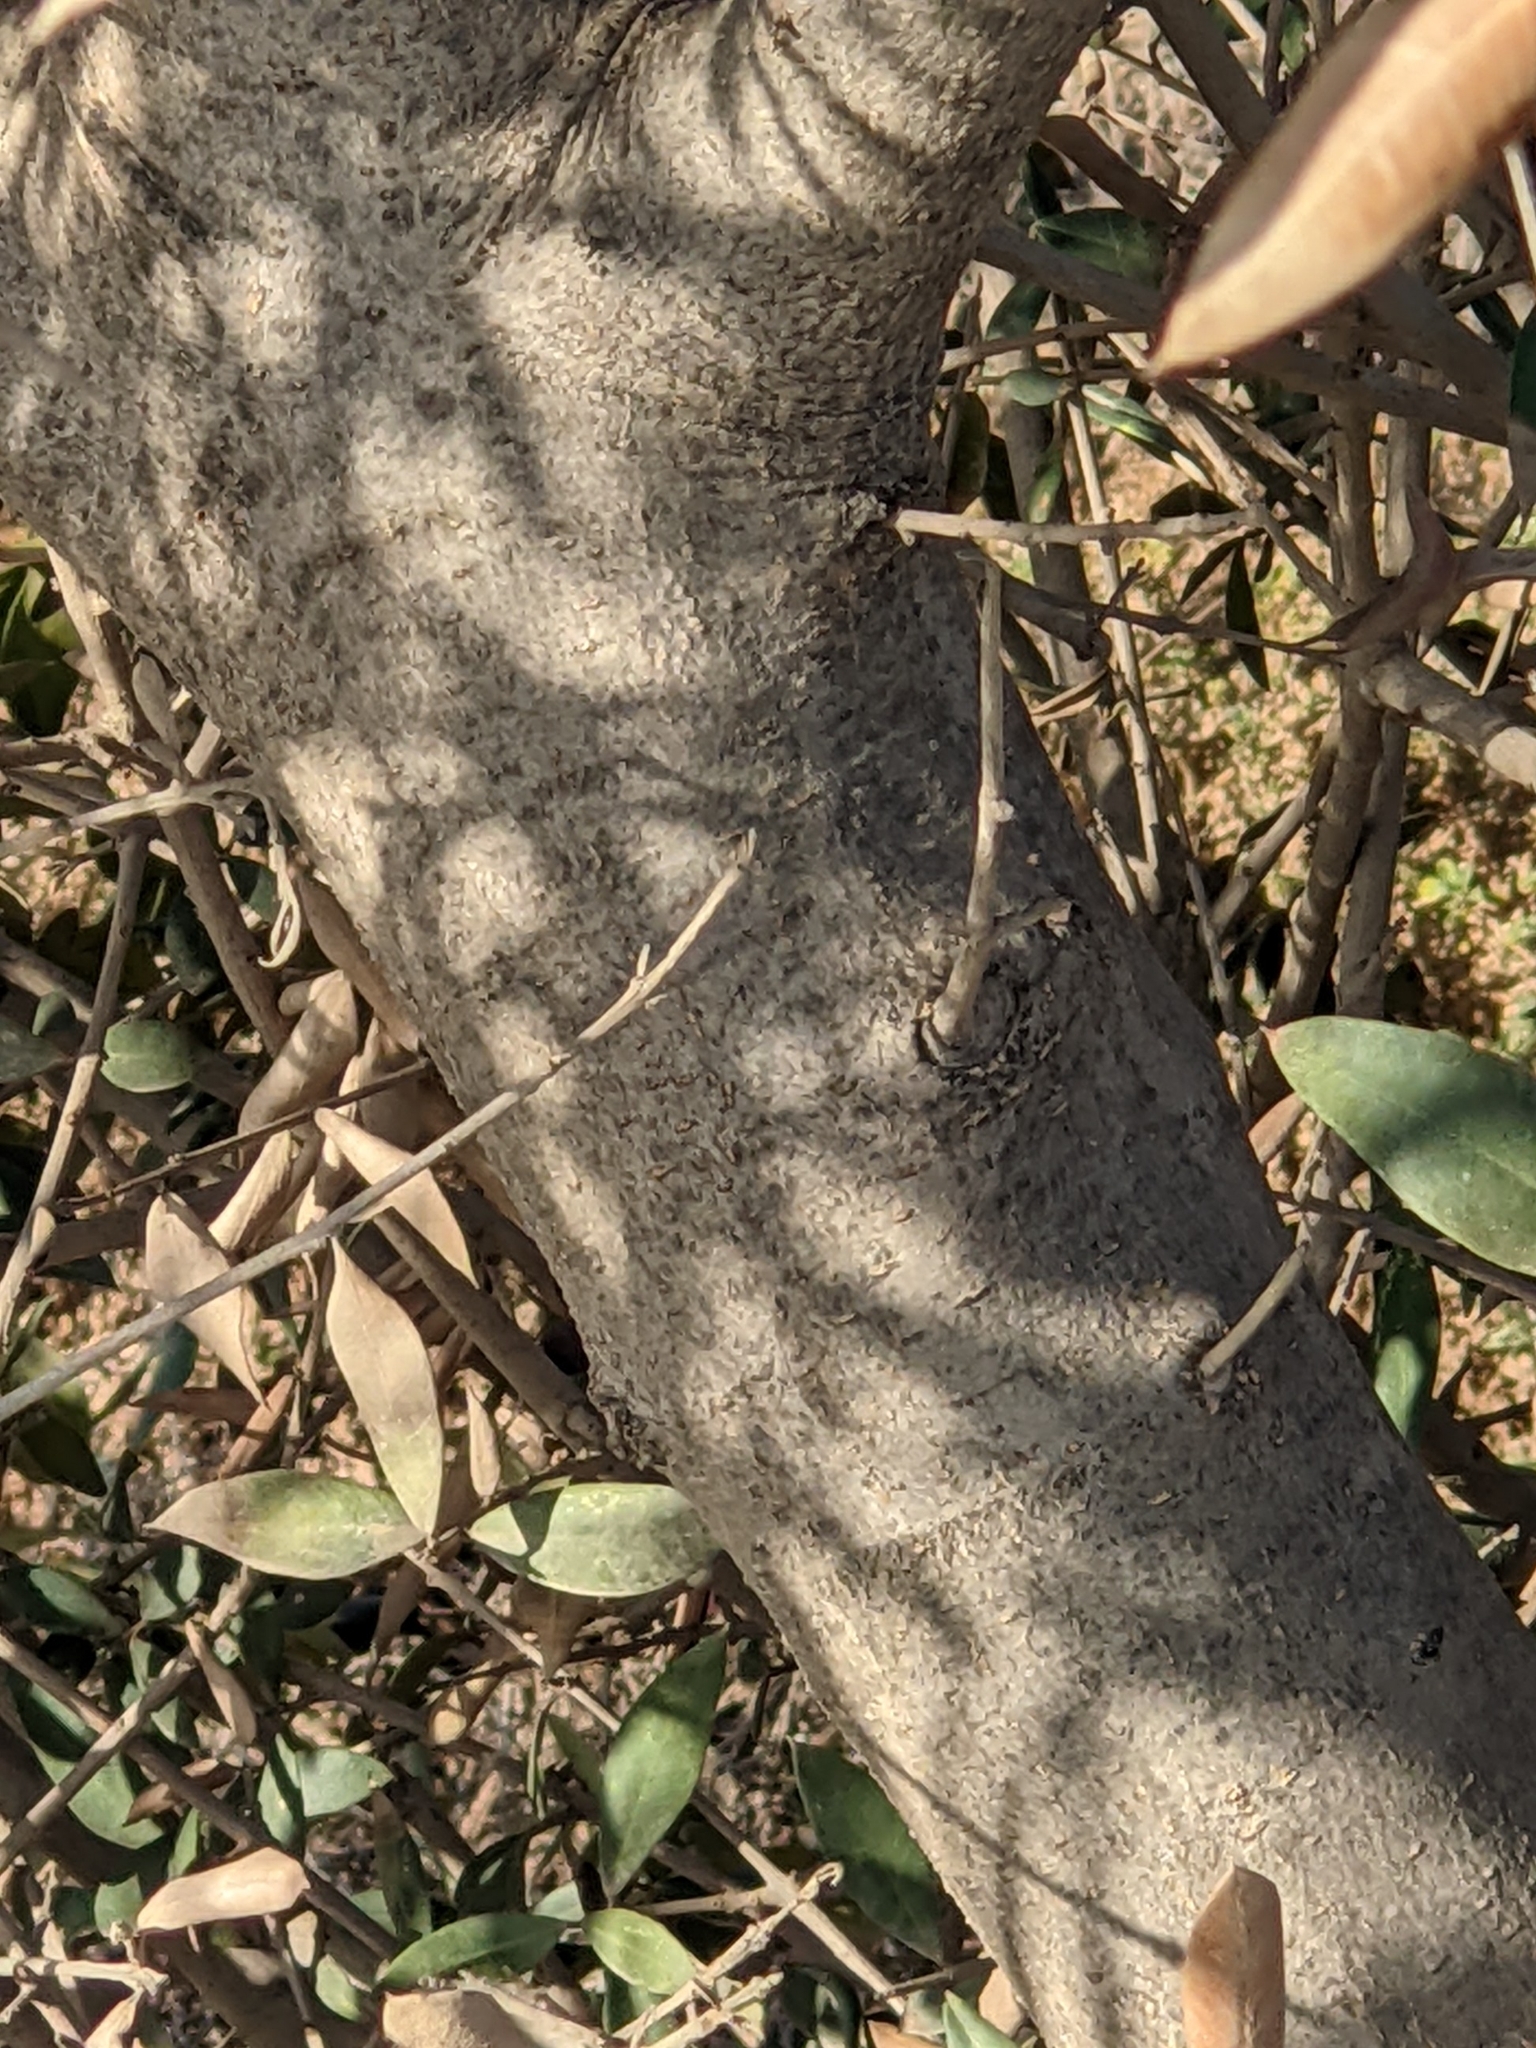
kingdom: Plantae
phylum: Tracheophyta
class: Magnoliopsida
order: Lamiales
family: Oleaceae
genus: Olea
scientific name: Olea europaea
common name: Olive
